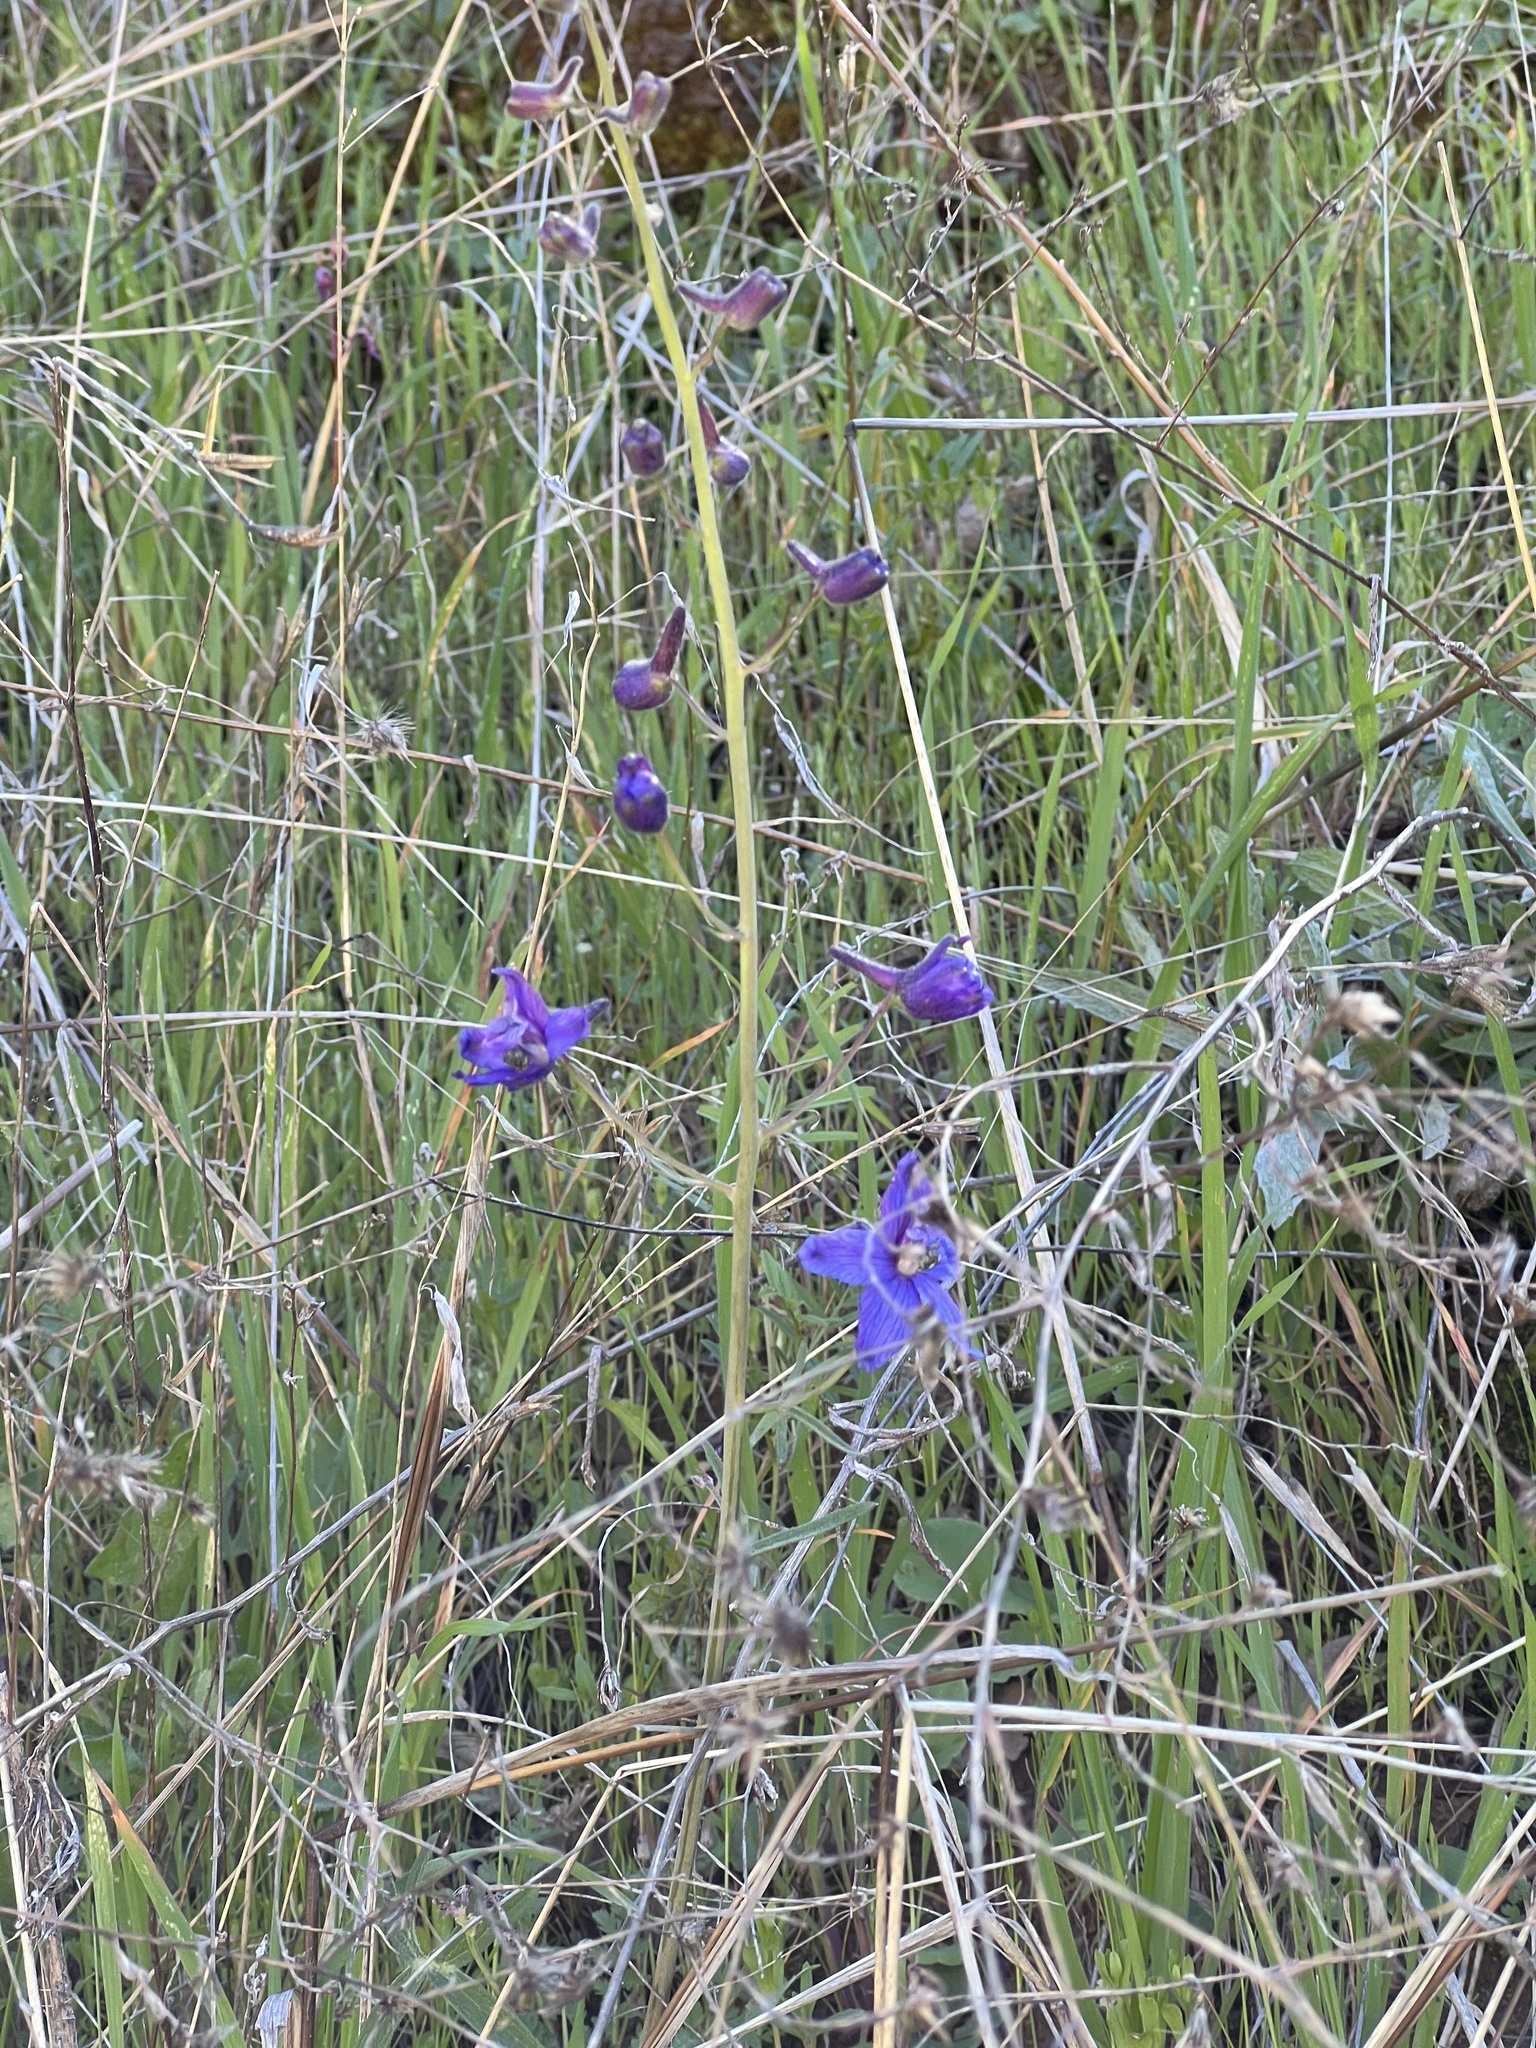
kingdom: Plantae
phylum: Tracheophyta
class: Magnoliopsida
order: Ranunculales
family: Ranunculaceae
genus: Delphinium
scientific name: Delphinium patens
